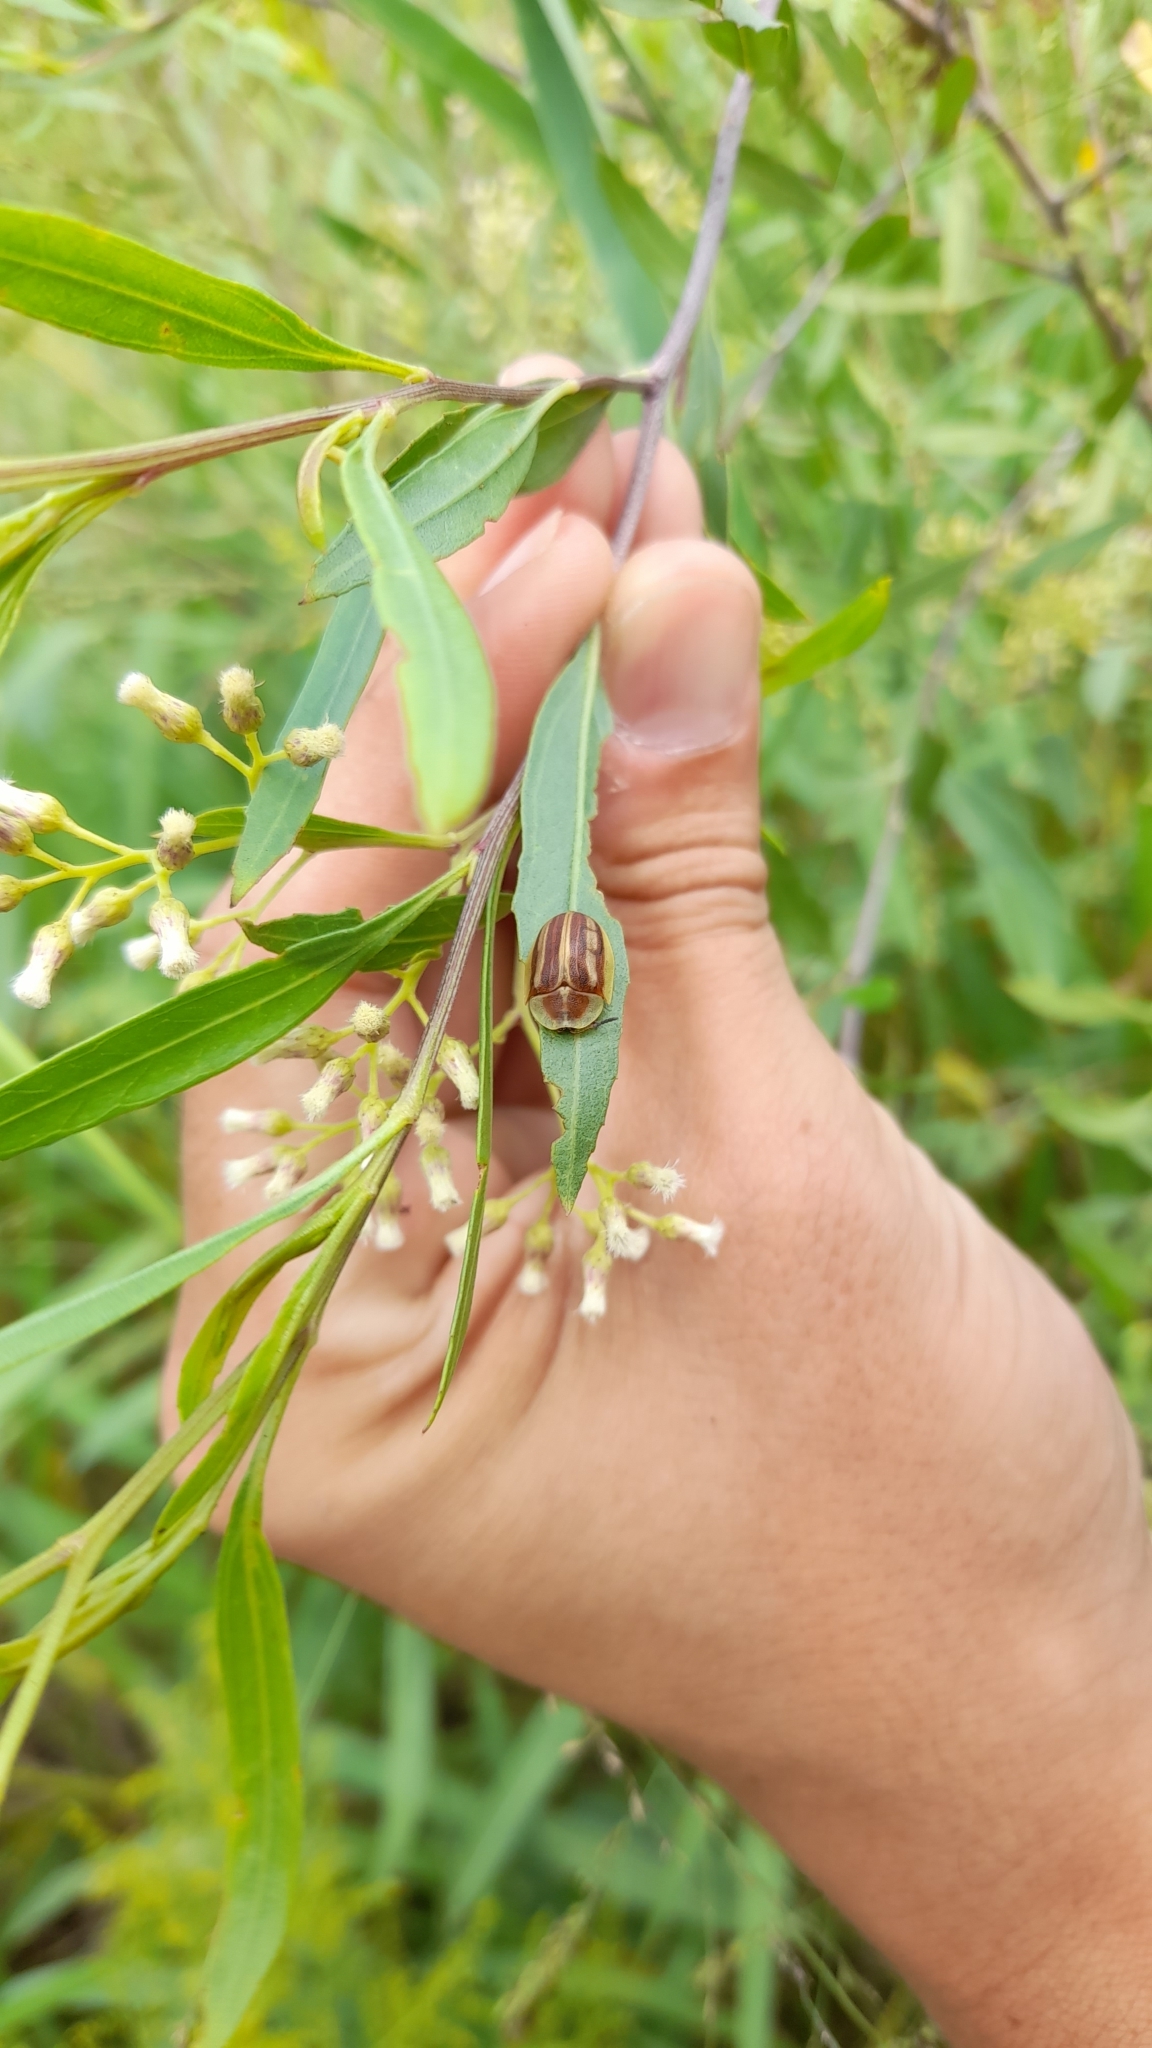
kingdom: Animalia
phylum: Arthropoda
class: Insecta
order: Coleoptera
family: Chrysomelidae
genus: Anacassis
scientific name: Anacassis fuscata
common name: Seepwillow flea beetle
